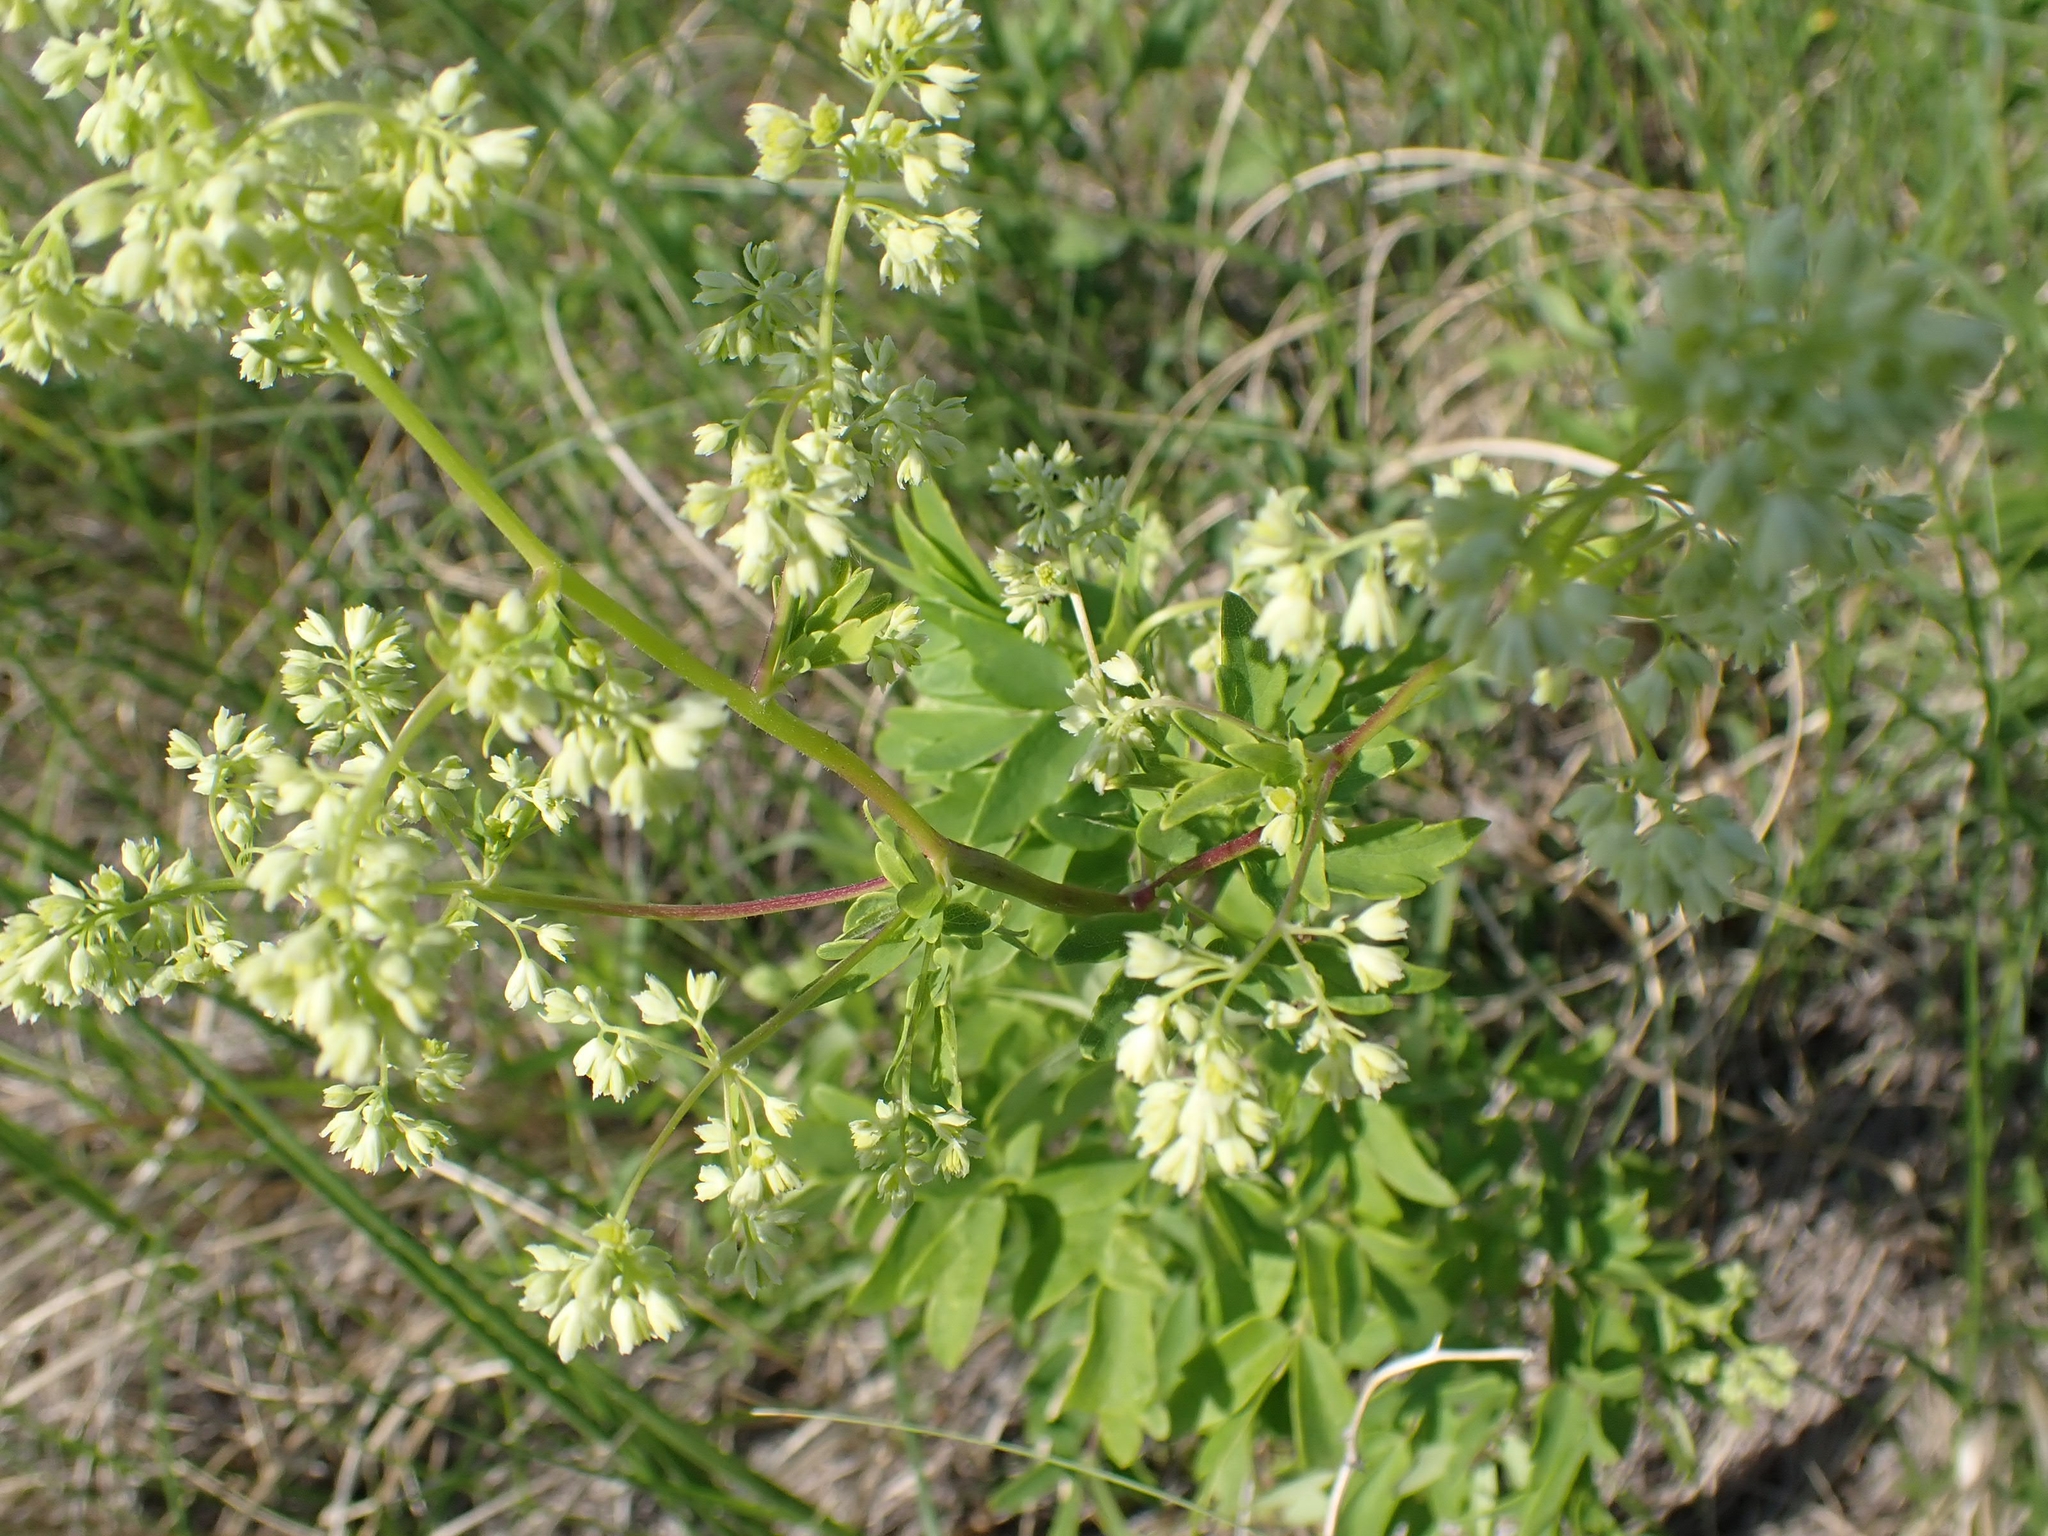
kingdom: Plantae
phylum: Tracheophyta
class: Magnoliopsida
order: Ranunculales
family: Ranunculaceae
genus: Thalictrum
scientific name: Thalictrum dasycarpum
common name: Purple meadow-rue
